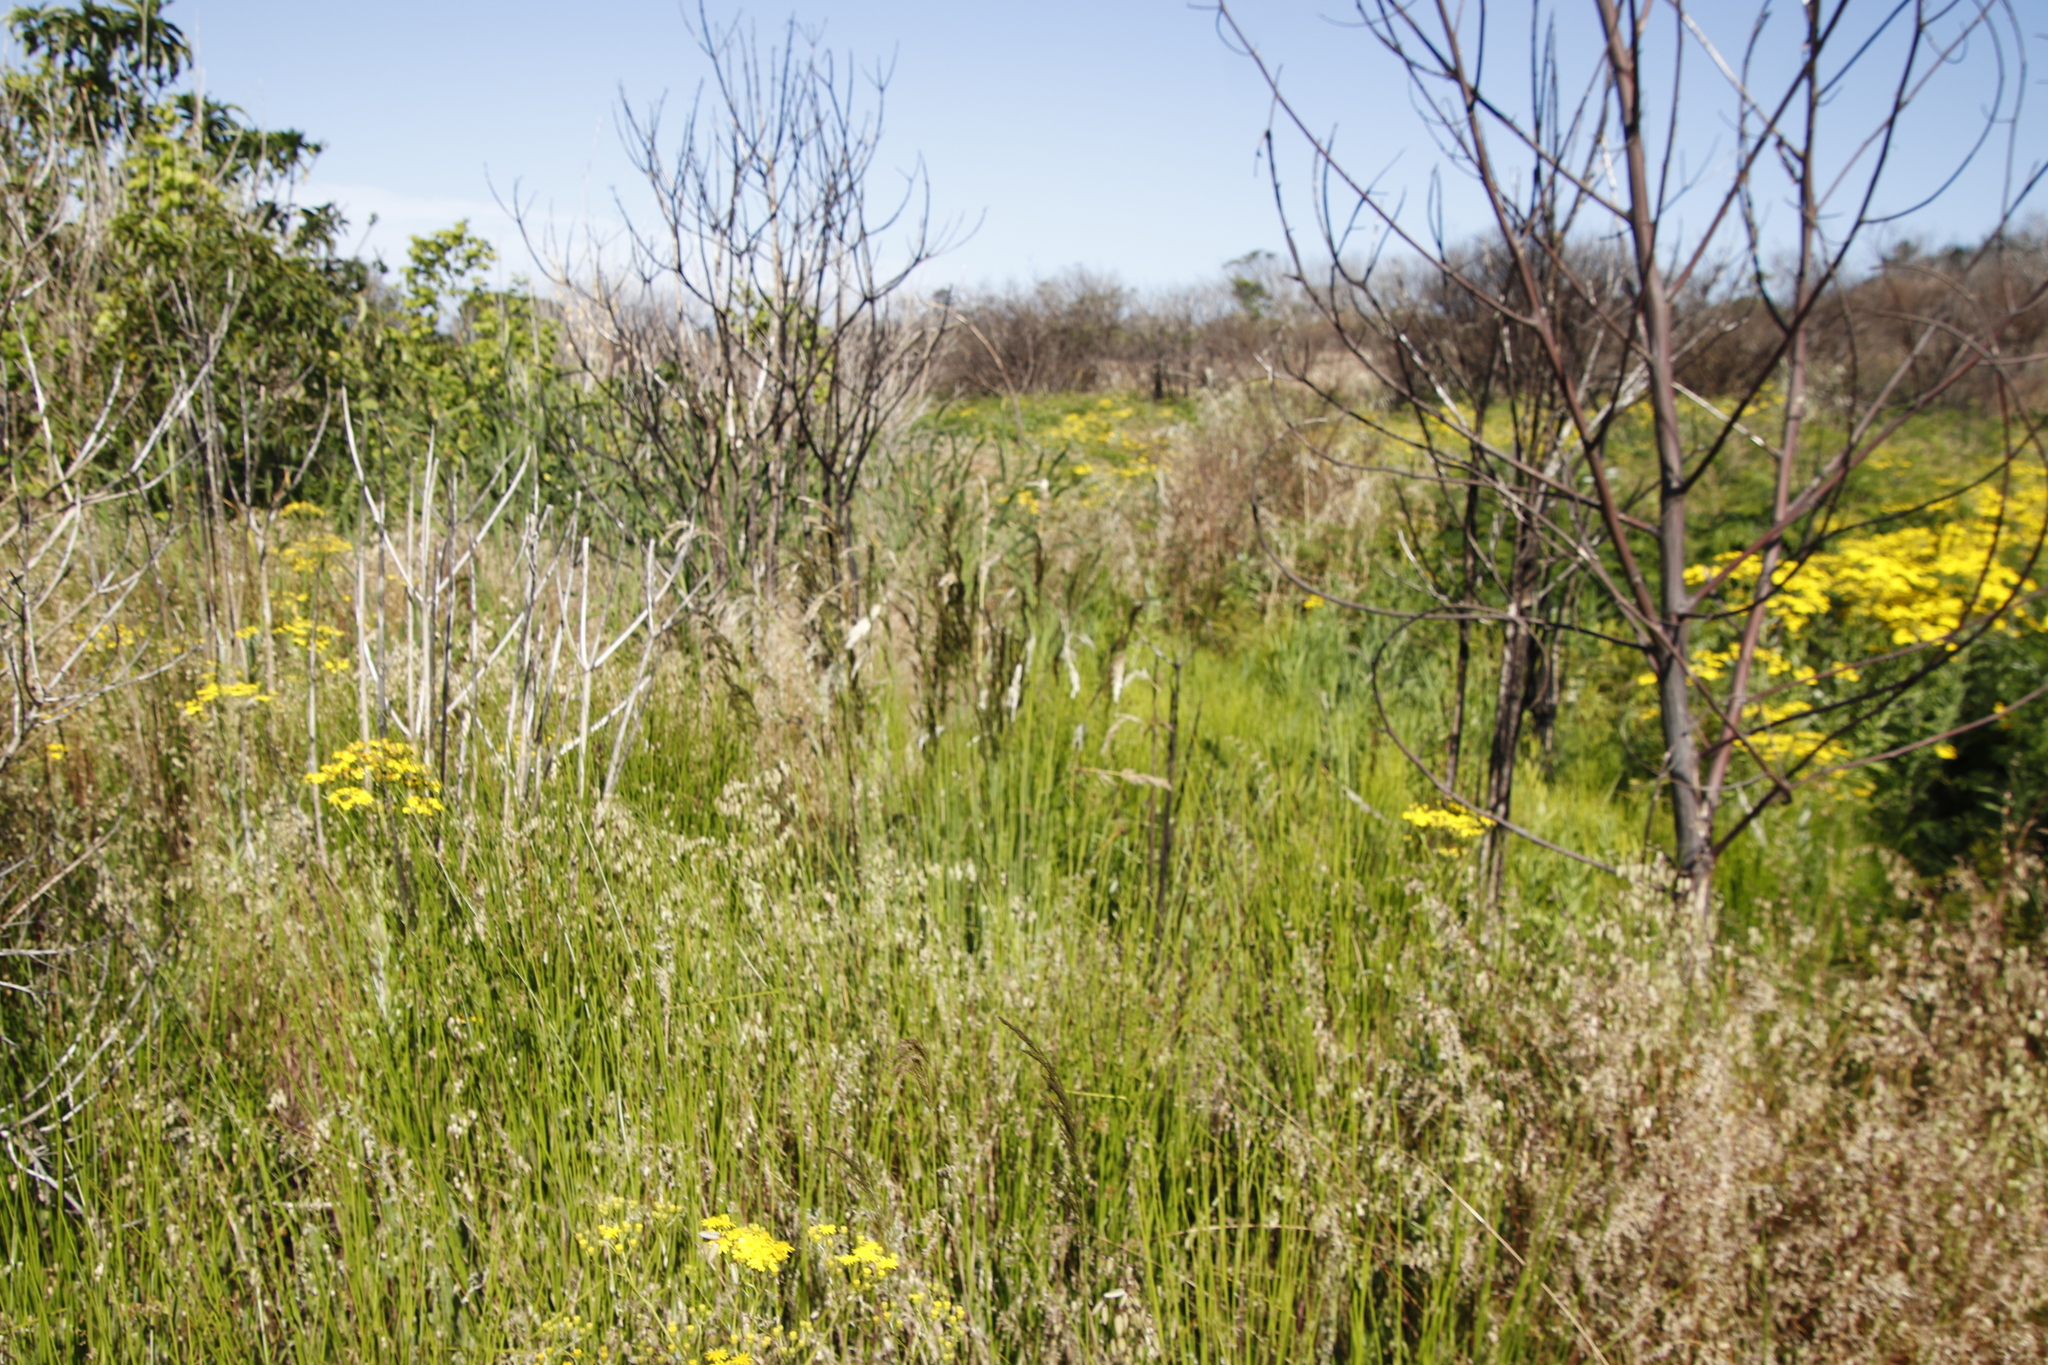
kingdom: Plantae
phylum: Tracheophyta
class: Liliopsida
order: Poales
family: Poaceae
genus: Briza
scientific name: Briza maxima
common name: Big quakinggrass
